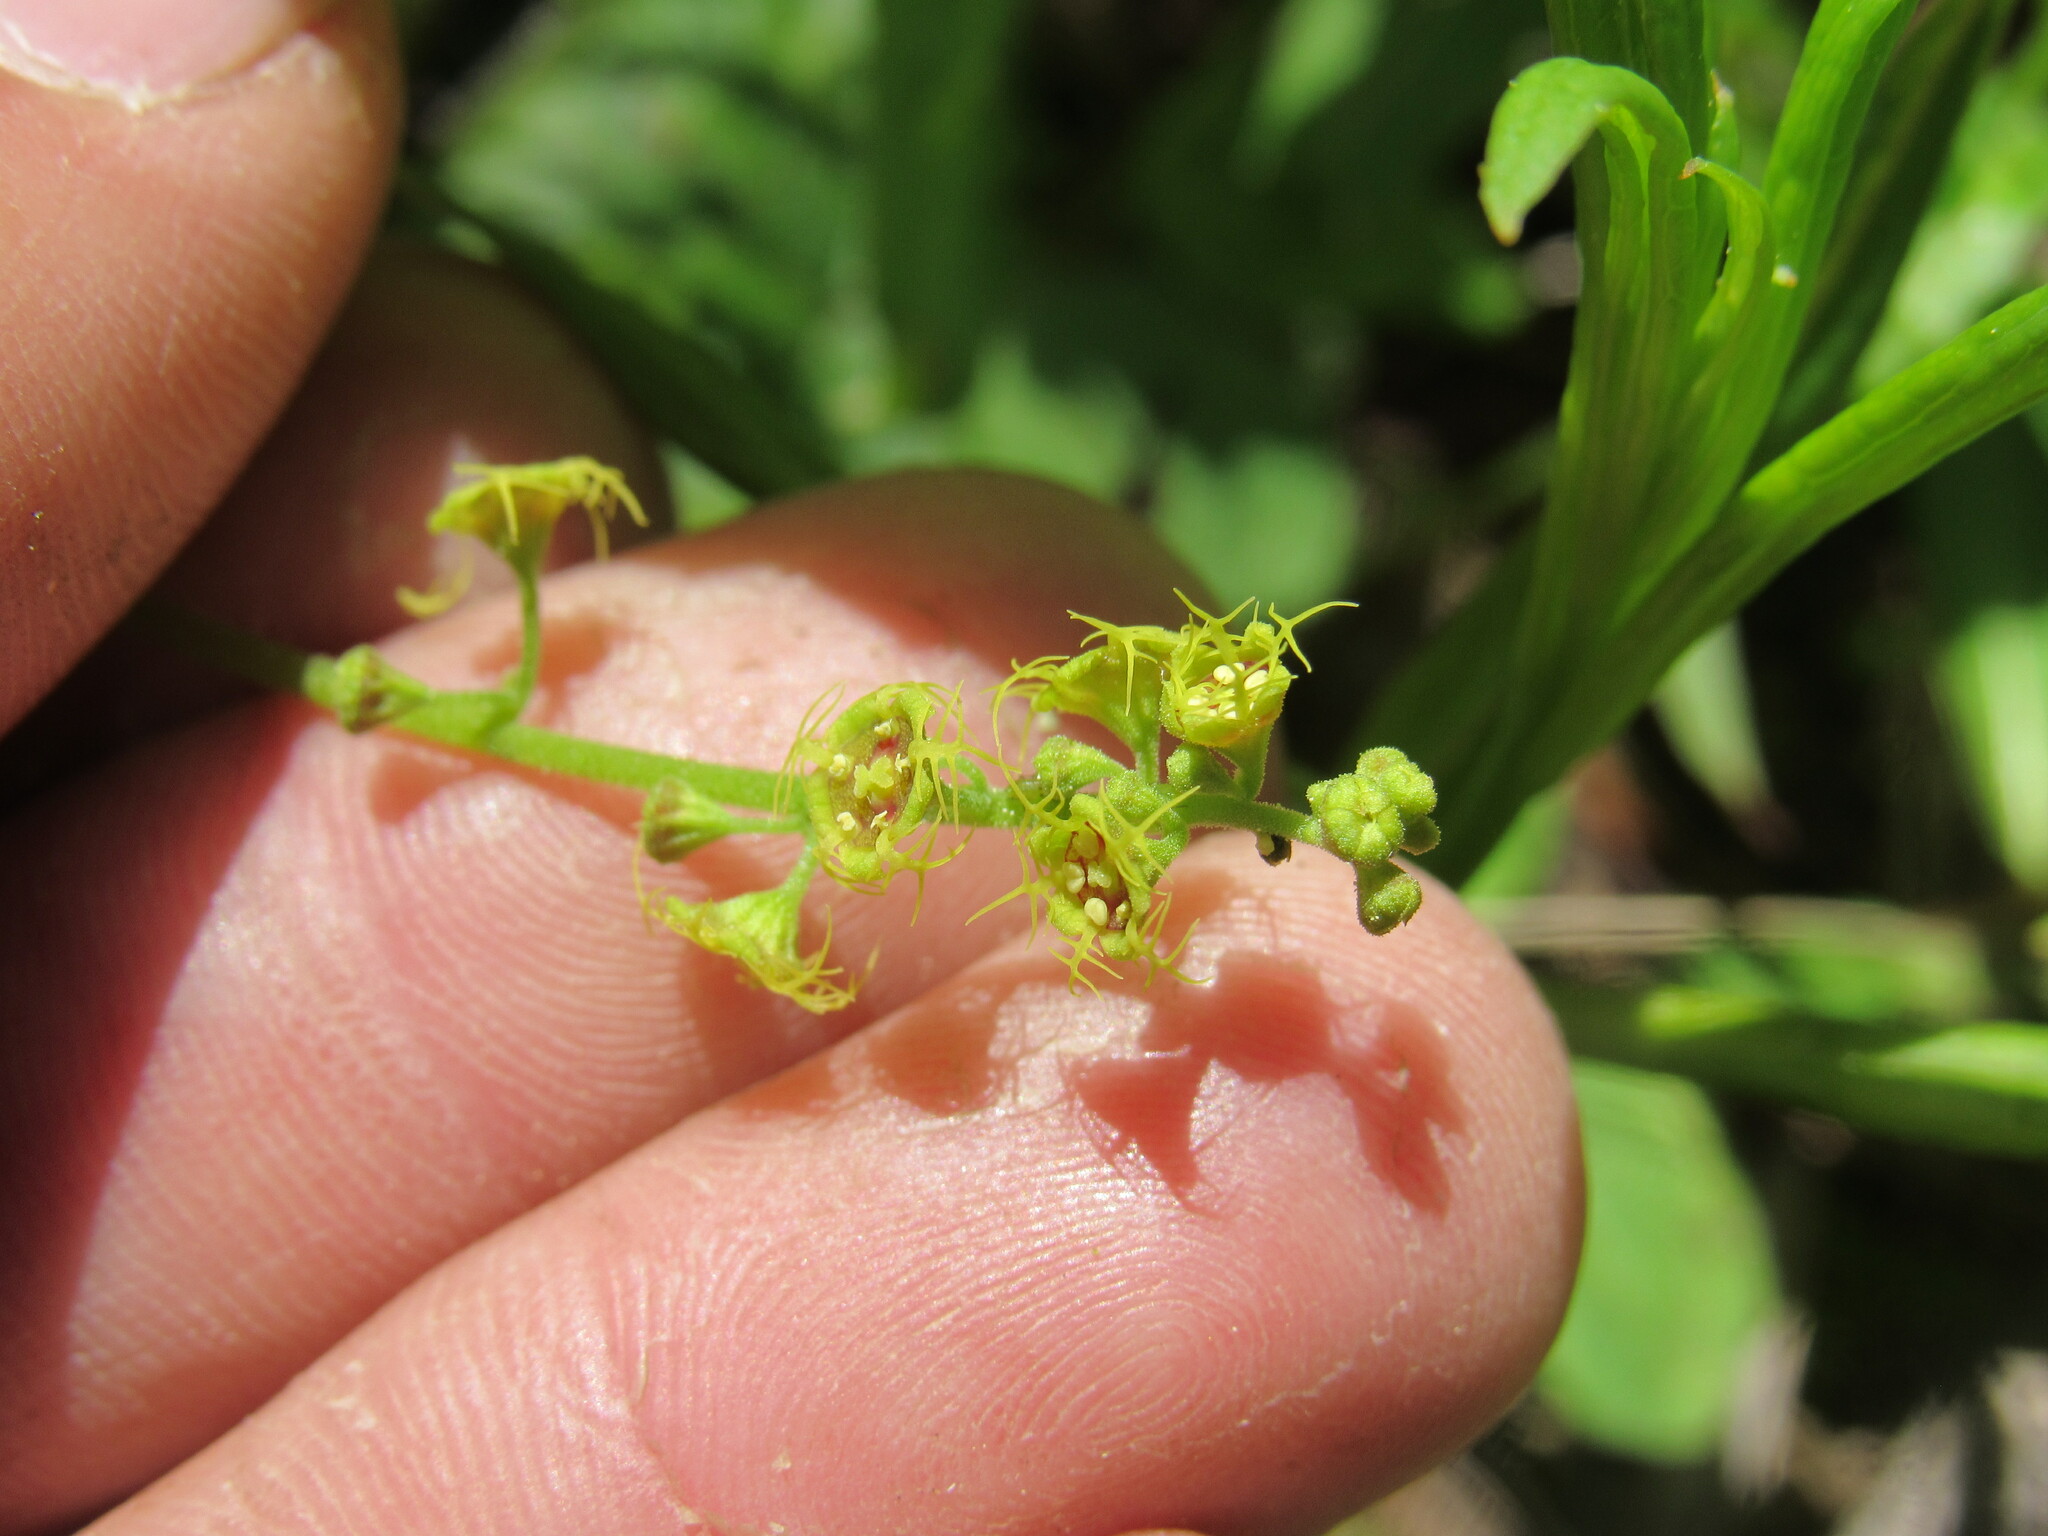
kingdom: Plantae
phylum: Tracheophyta
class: Magnoliopsida
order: Saxifragales
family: Saxifragaceae
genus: Pectiantia
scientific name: Pectiantia pentandra
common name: Alpine bishop's-cap
